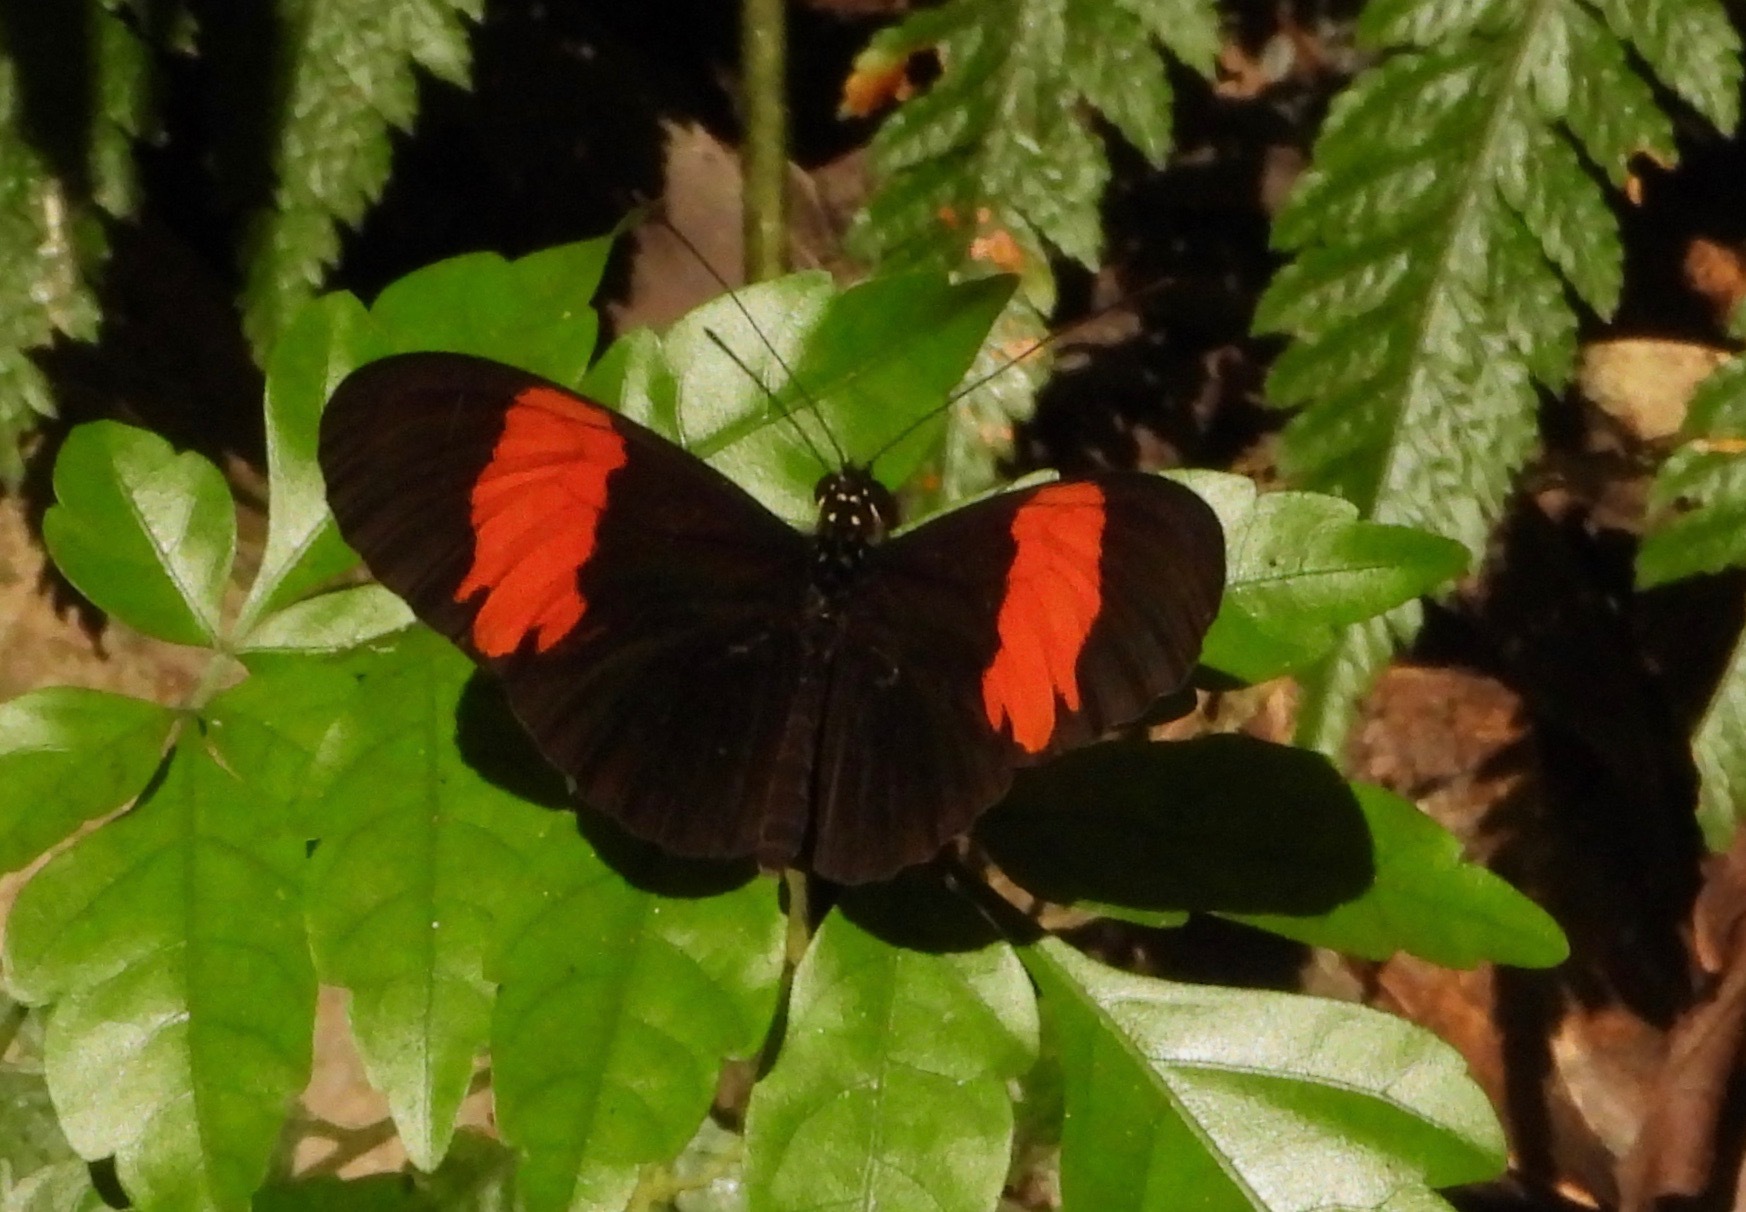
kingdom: Animalia
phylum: Arthropoda
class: Insecta
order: Lepidoptera
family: Nymphalidae
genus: Heliconius
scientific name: Heliconius erato
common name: Common patch longwing
